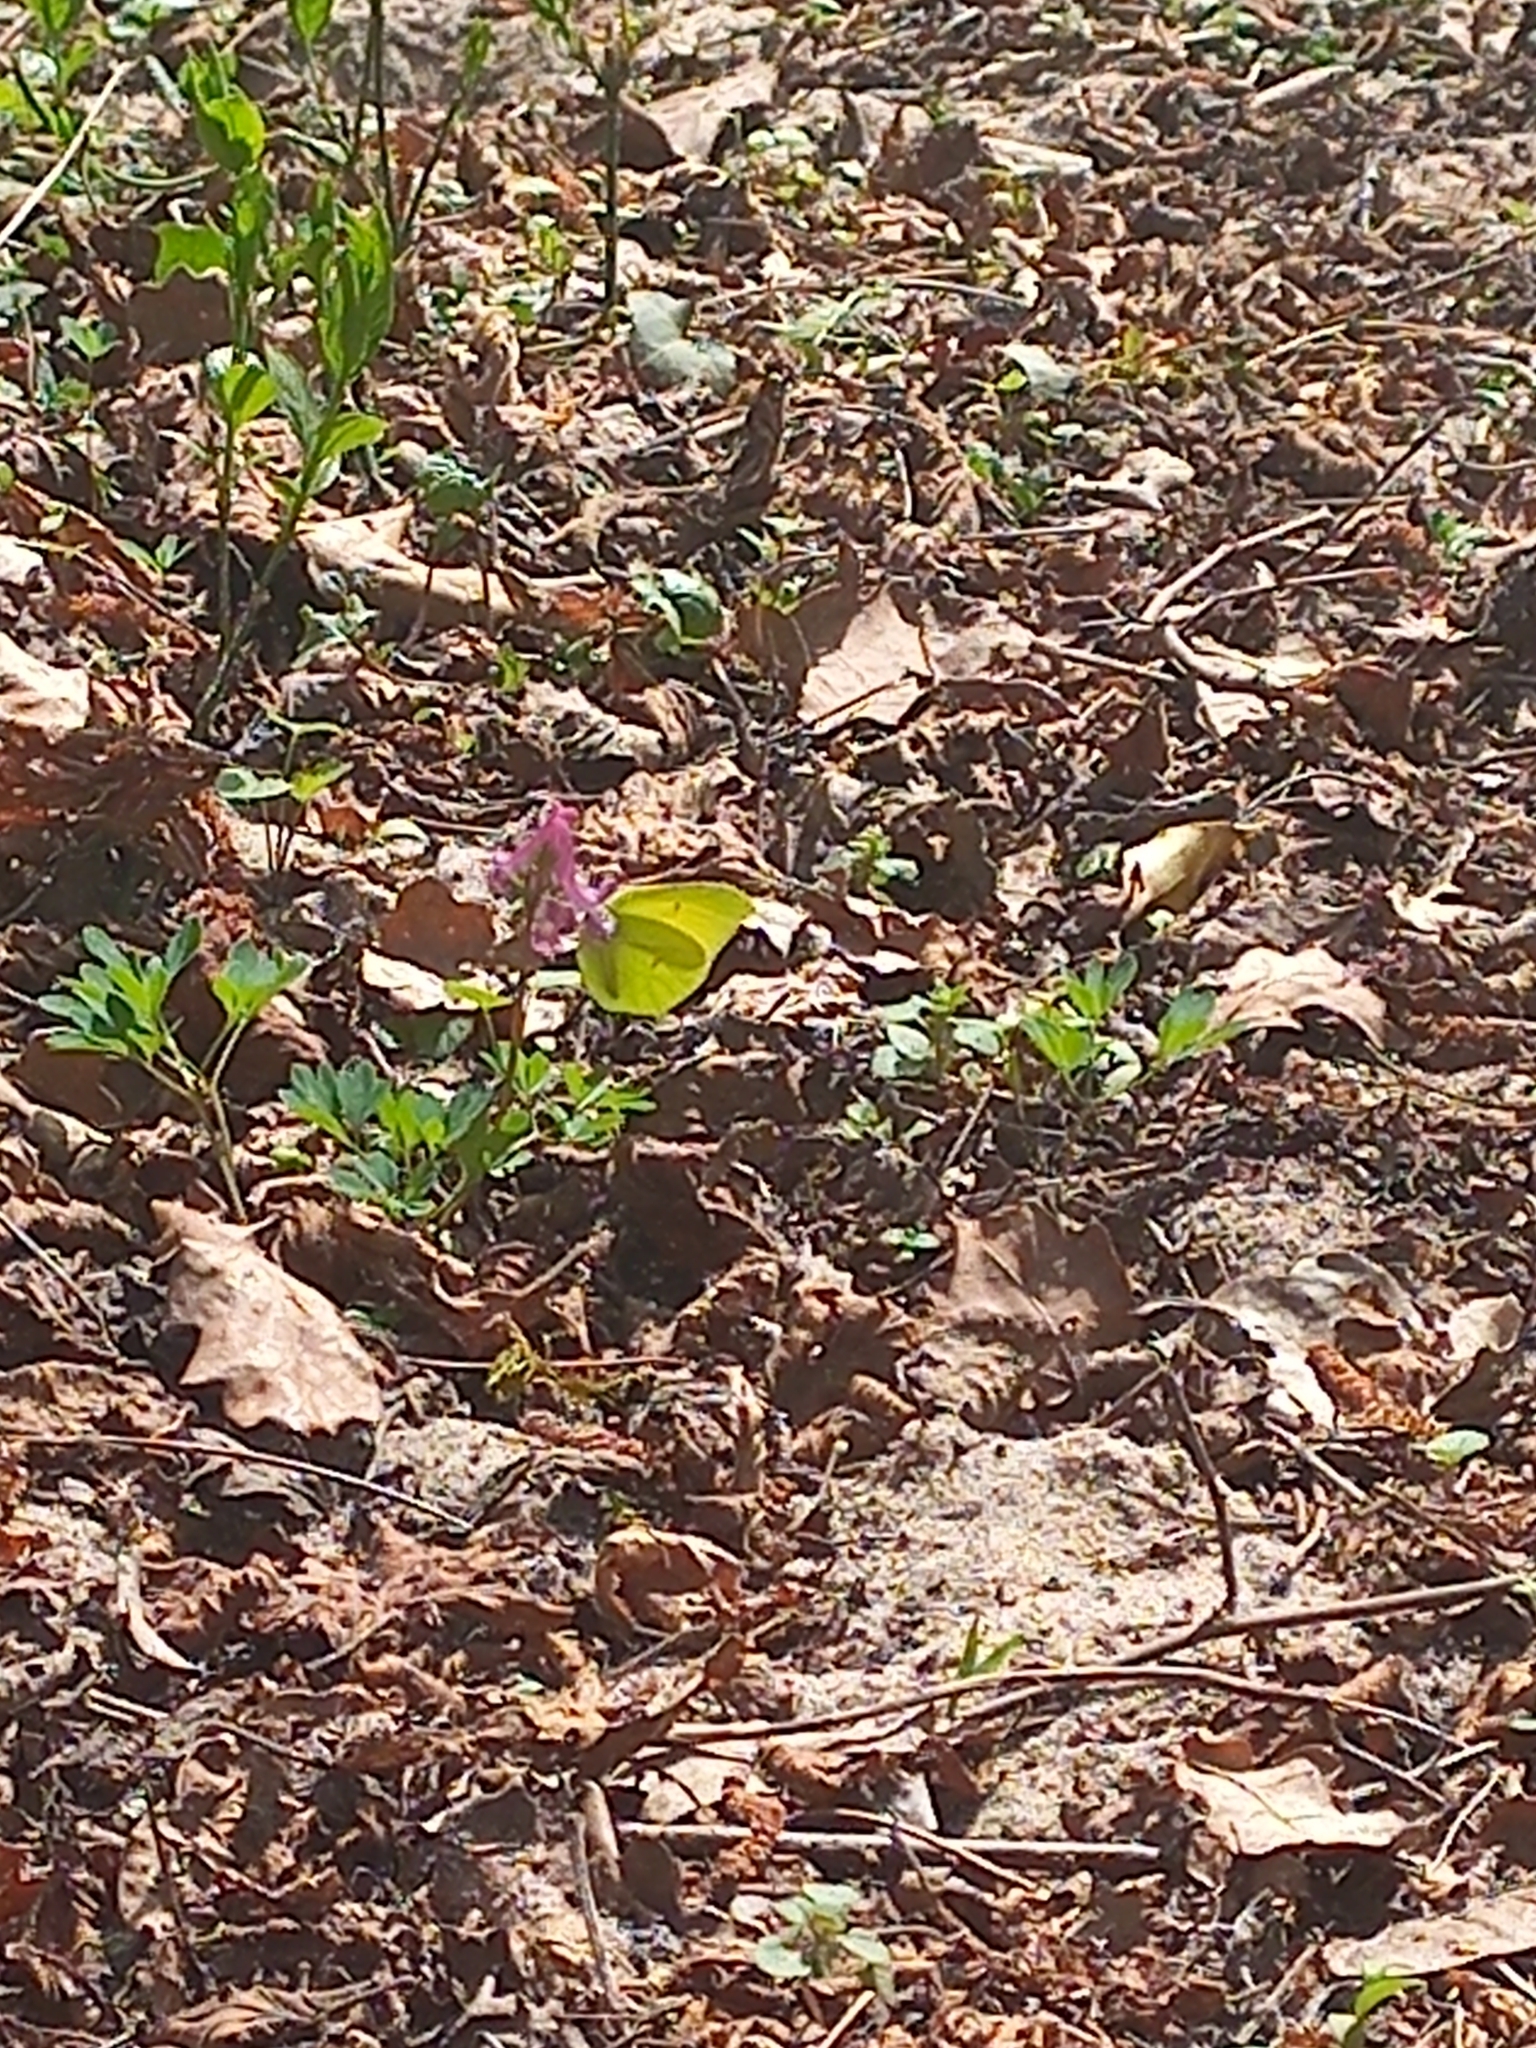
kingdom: Animalia
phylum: Arthropoda
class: Insecta
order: Lepidoptera
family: Pieridae
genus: Gonepteryx
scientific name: Gonepteryx rhamni
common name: Brimstone
